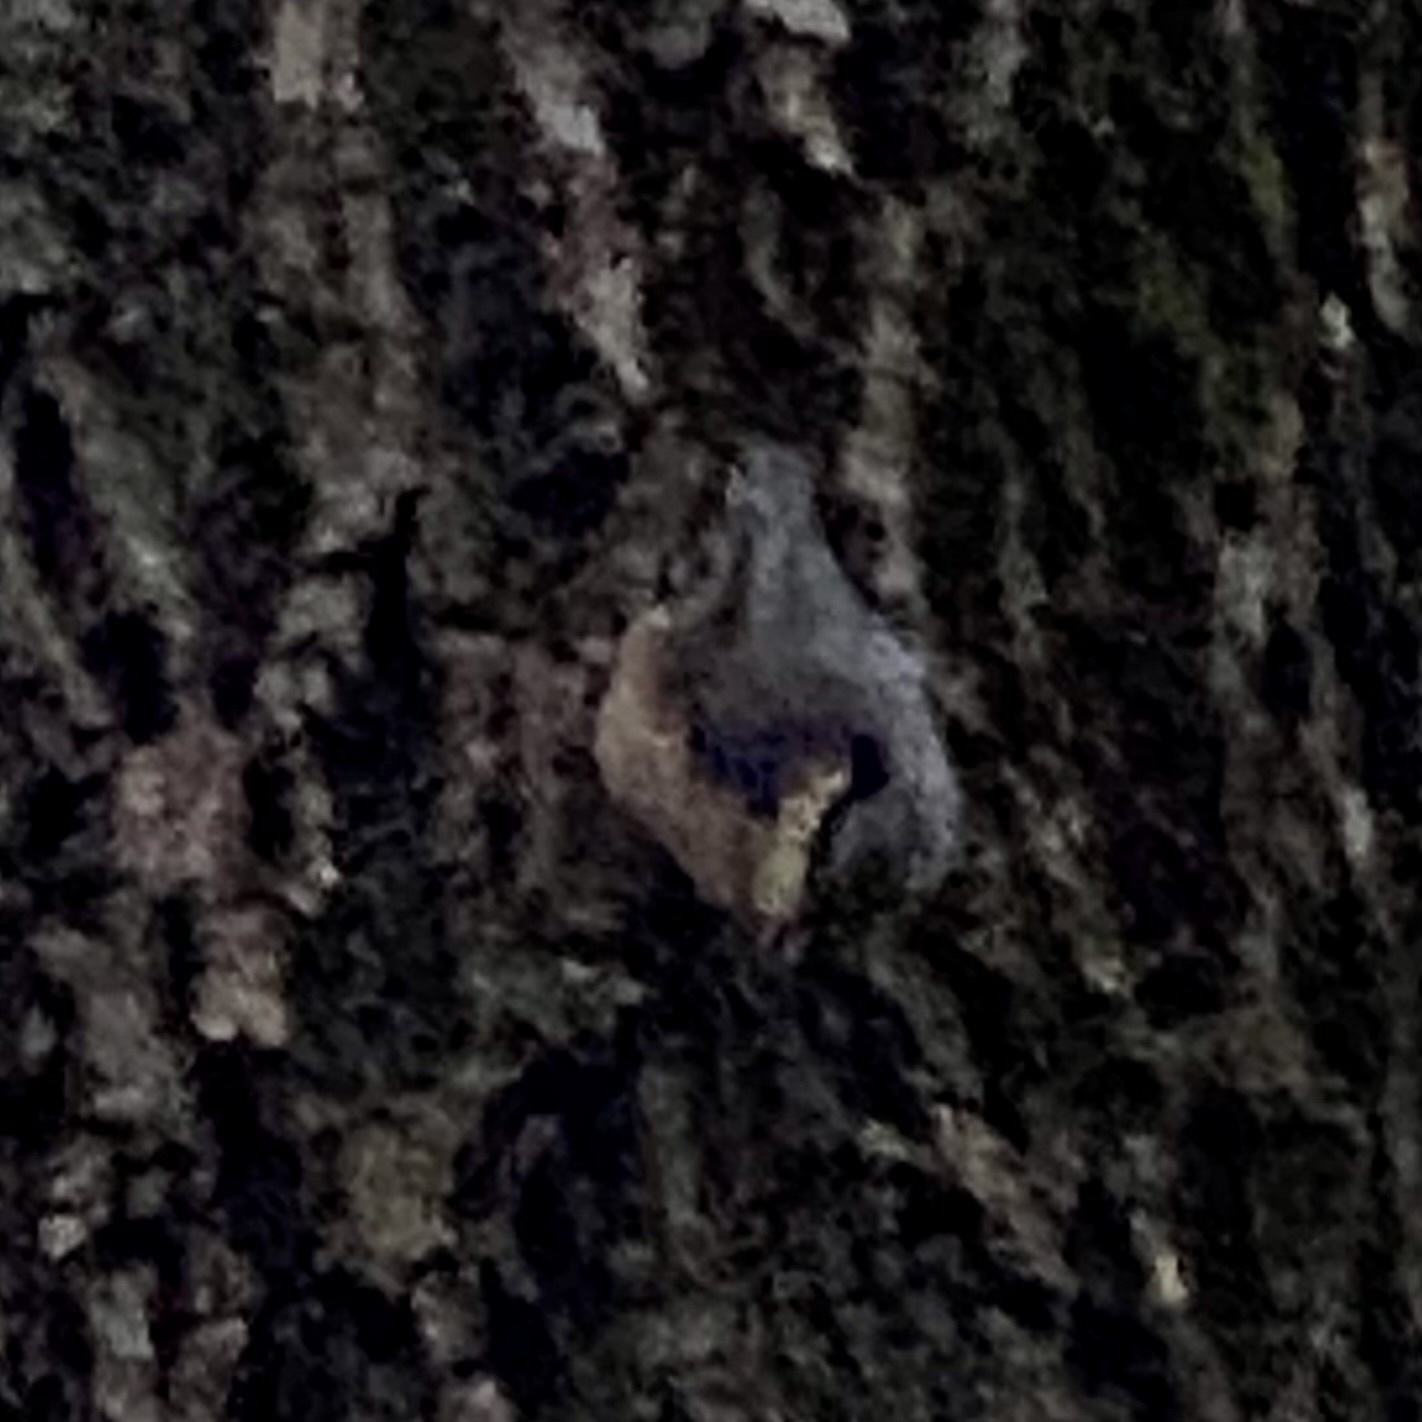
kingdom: Animalia
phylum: Chordata
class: Aves
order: Passeriformes
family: Sittidae
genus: Sitta
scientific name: Sitta europaea
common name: Eurasian nuthatch
